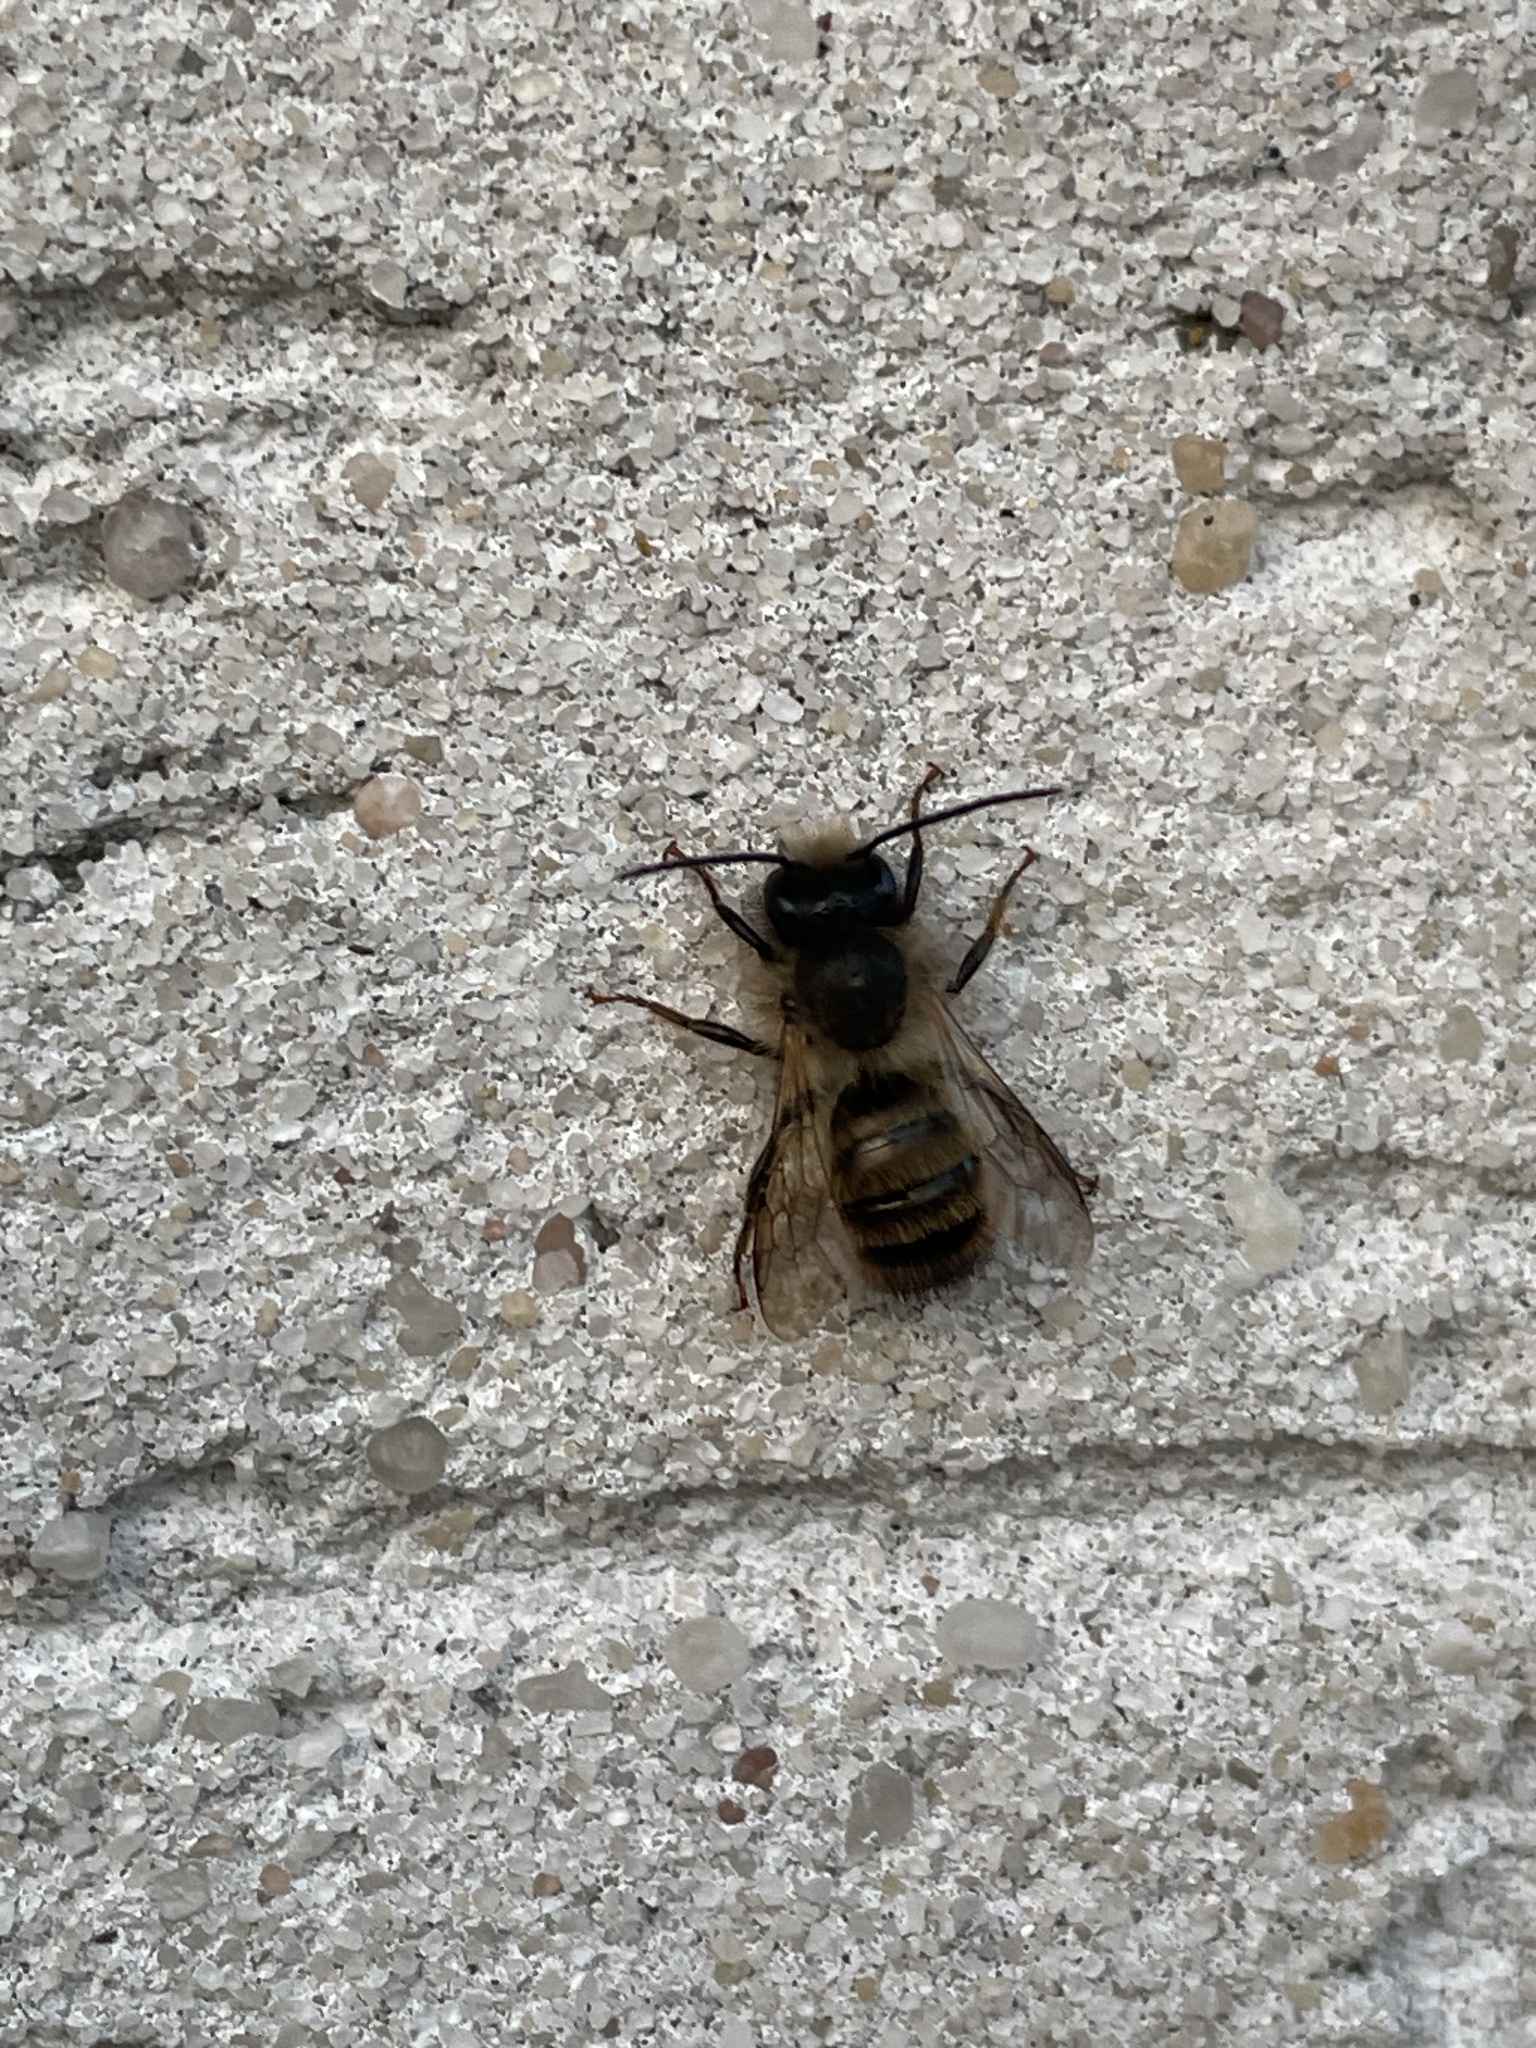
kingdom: Animalia
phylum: Arthropoda
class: Insecta
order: Hymenoptera
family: Megachilidae
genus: Osmia
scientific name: Osmia bicornis
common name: Red mason bee
